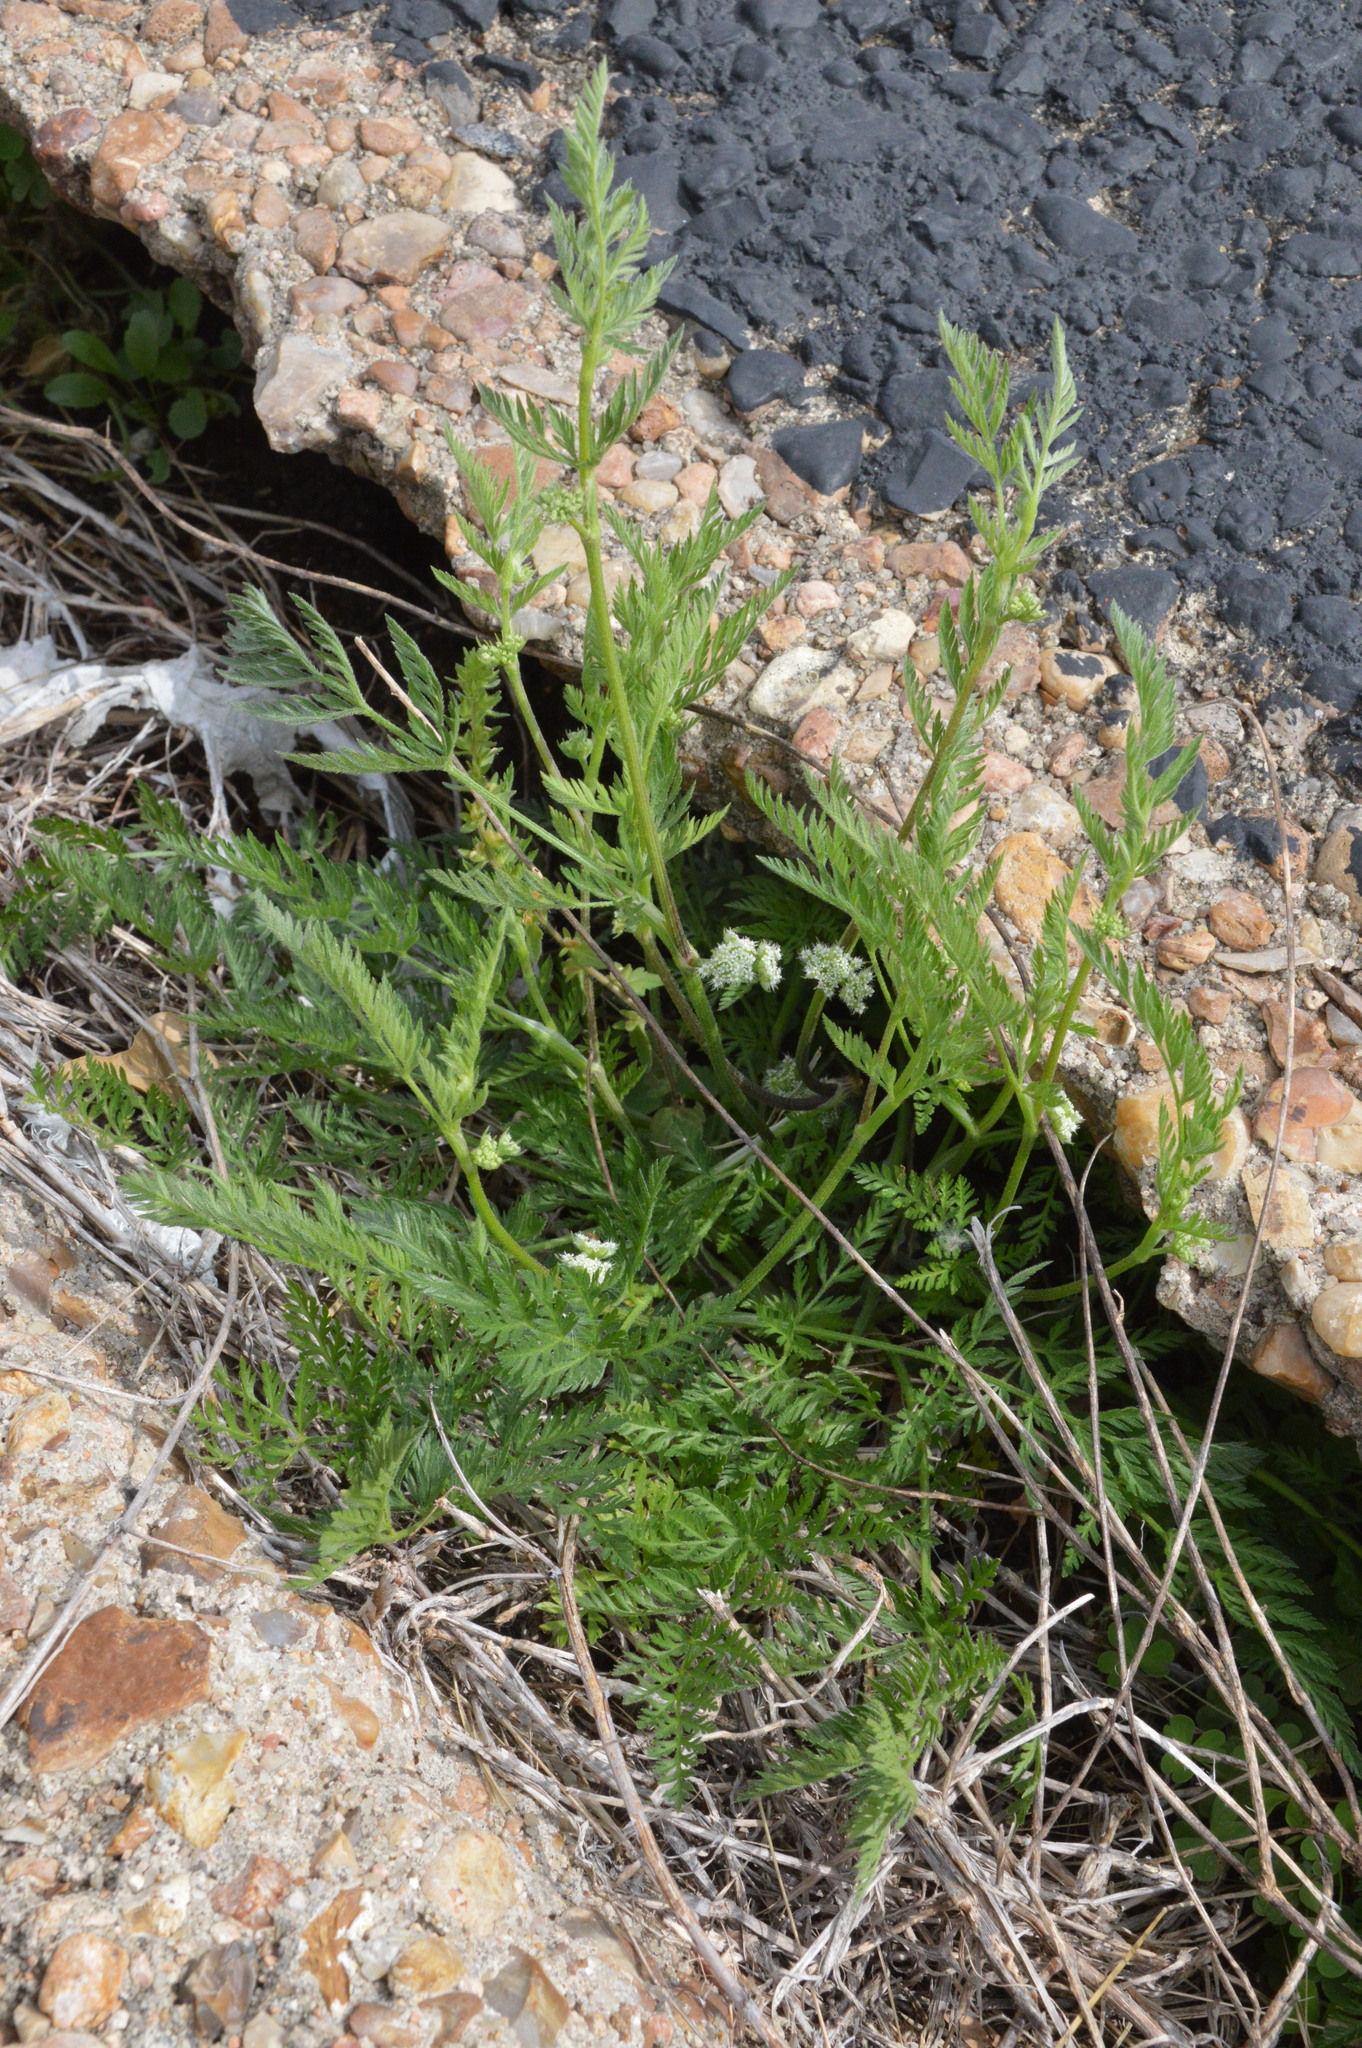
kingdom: Plantae
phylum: Tracheophyta
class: Magnoliopsida
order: Apiales
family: Apiaceae
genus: Torilis
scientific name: Torilis nodosa
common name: Knotted hedge-parsley
